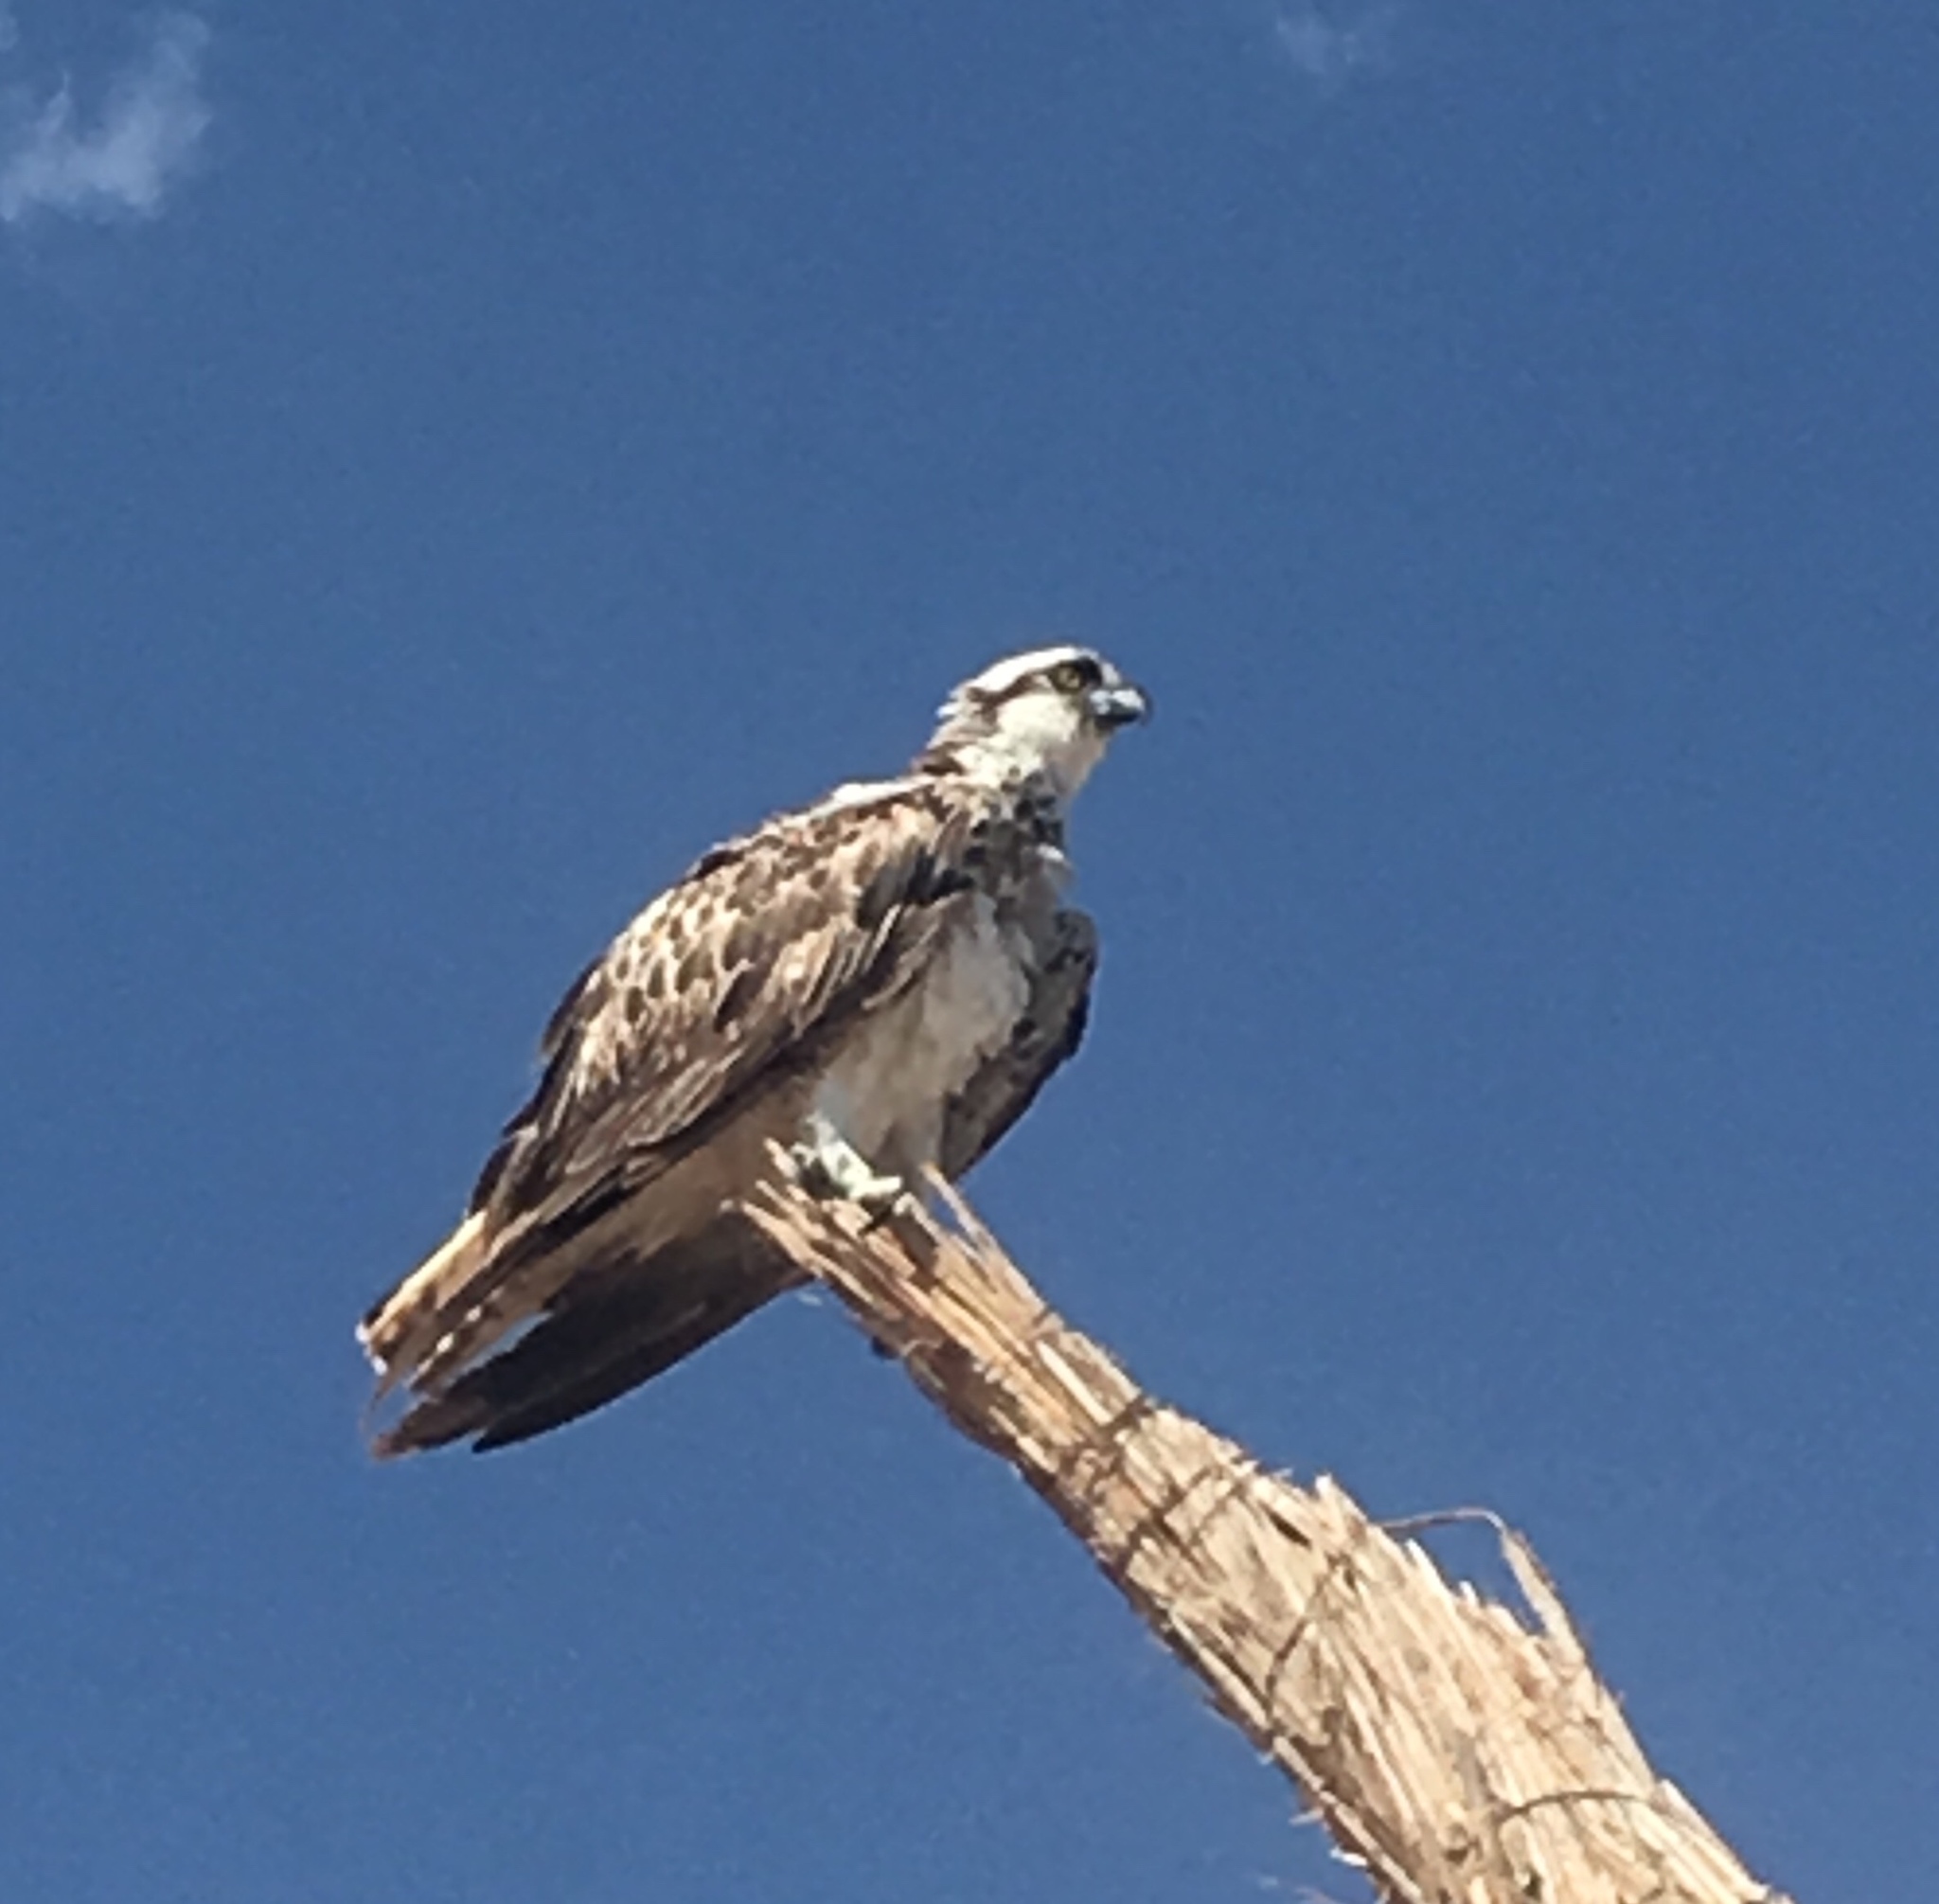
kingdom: Animalia
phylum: Chordata
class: Aves
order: Accipitriformes
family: Pandionidae
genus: Pandion
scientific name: Pandion haliaetus
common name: Osprey
